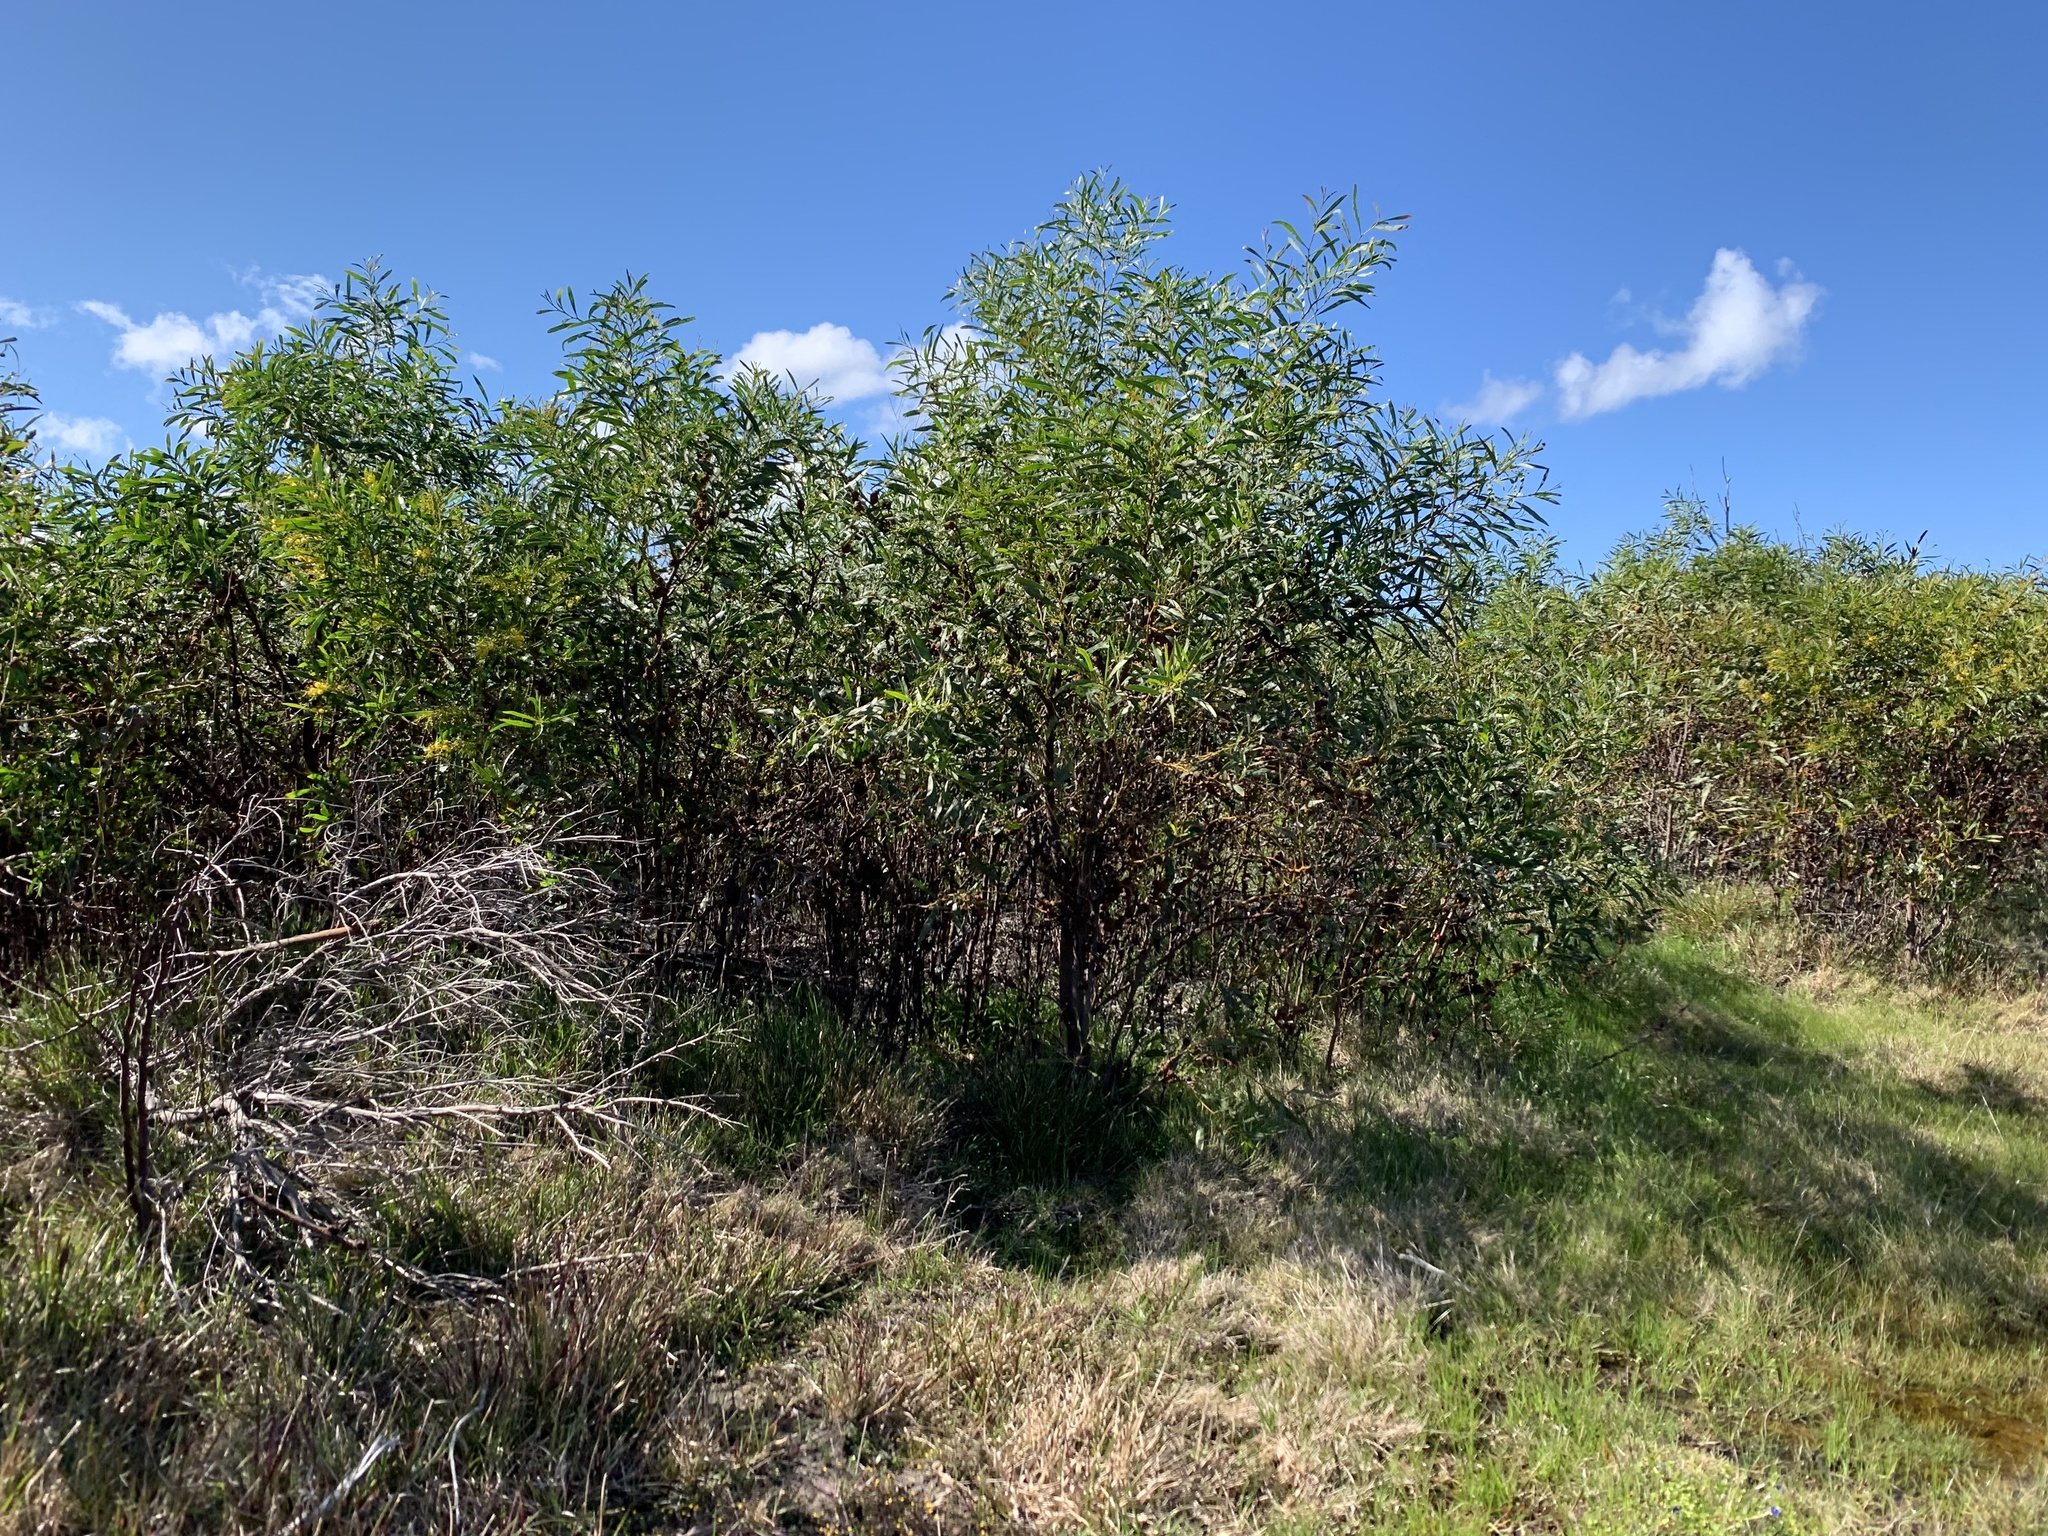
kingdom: Plantae
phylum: Tracheophyta
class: Magnoliopsida
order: Fabales
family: Fabaceae
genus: Acacia
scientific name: Acacia saligna
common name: Orange wattle
